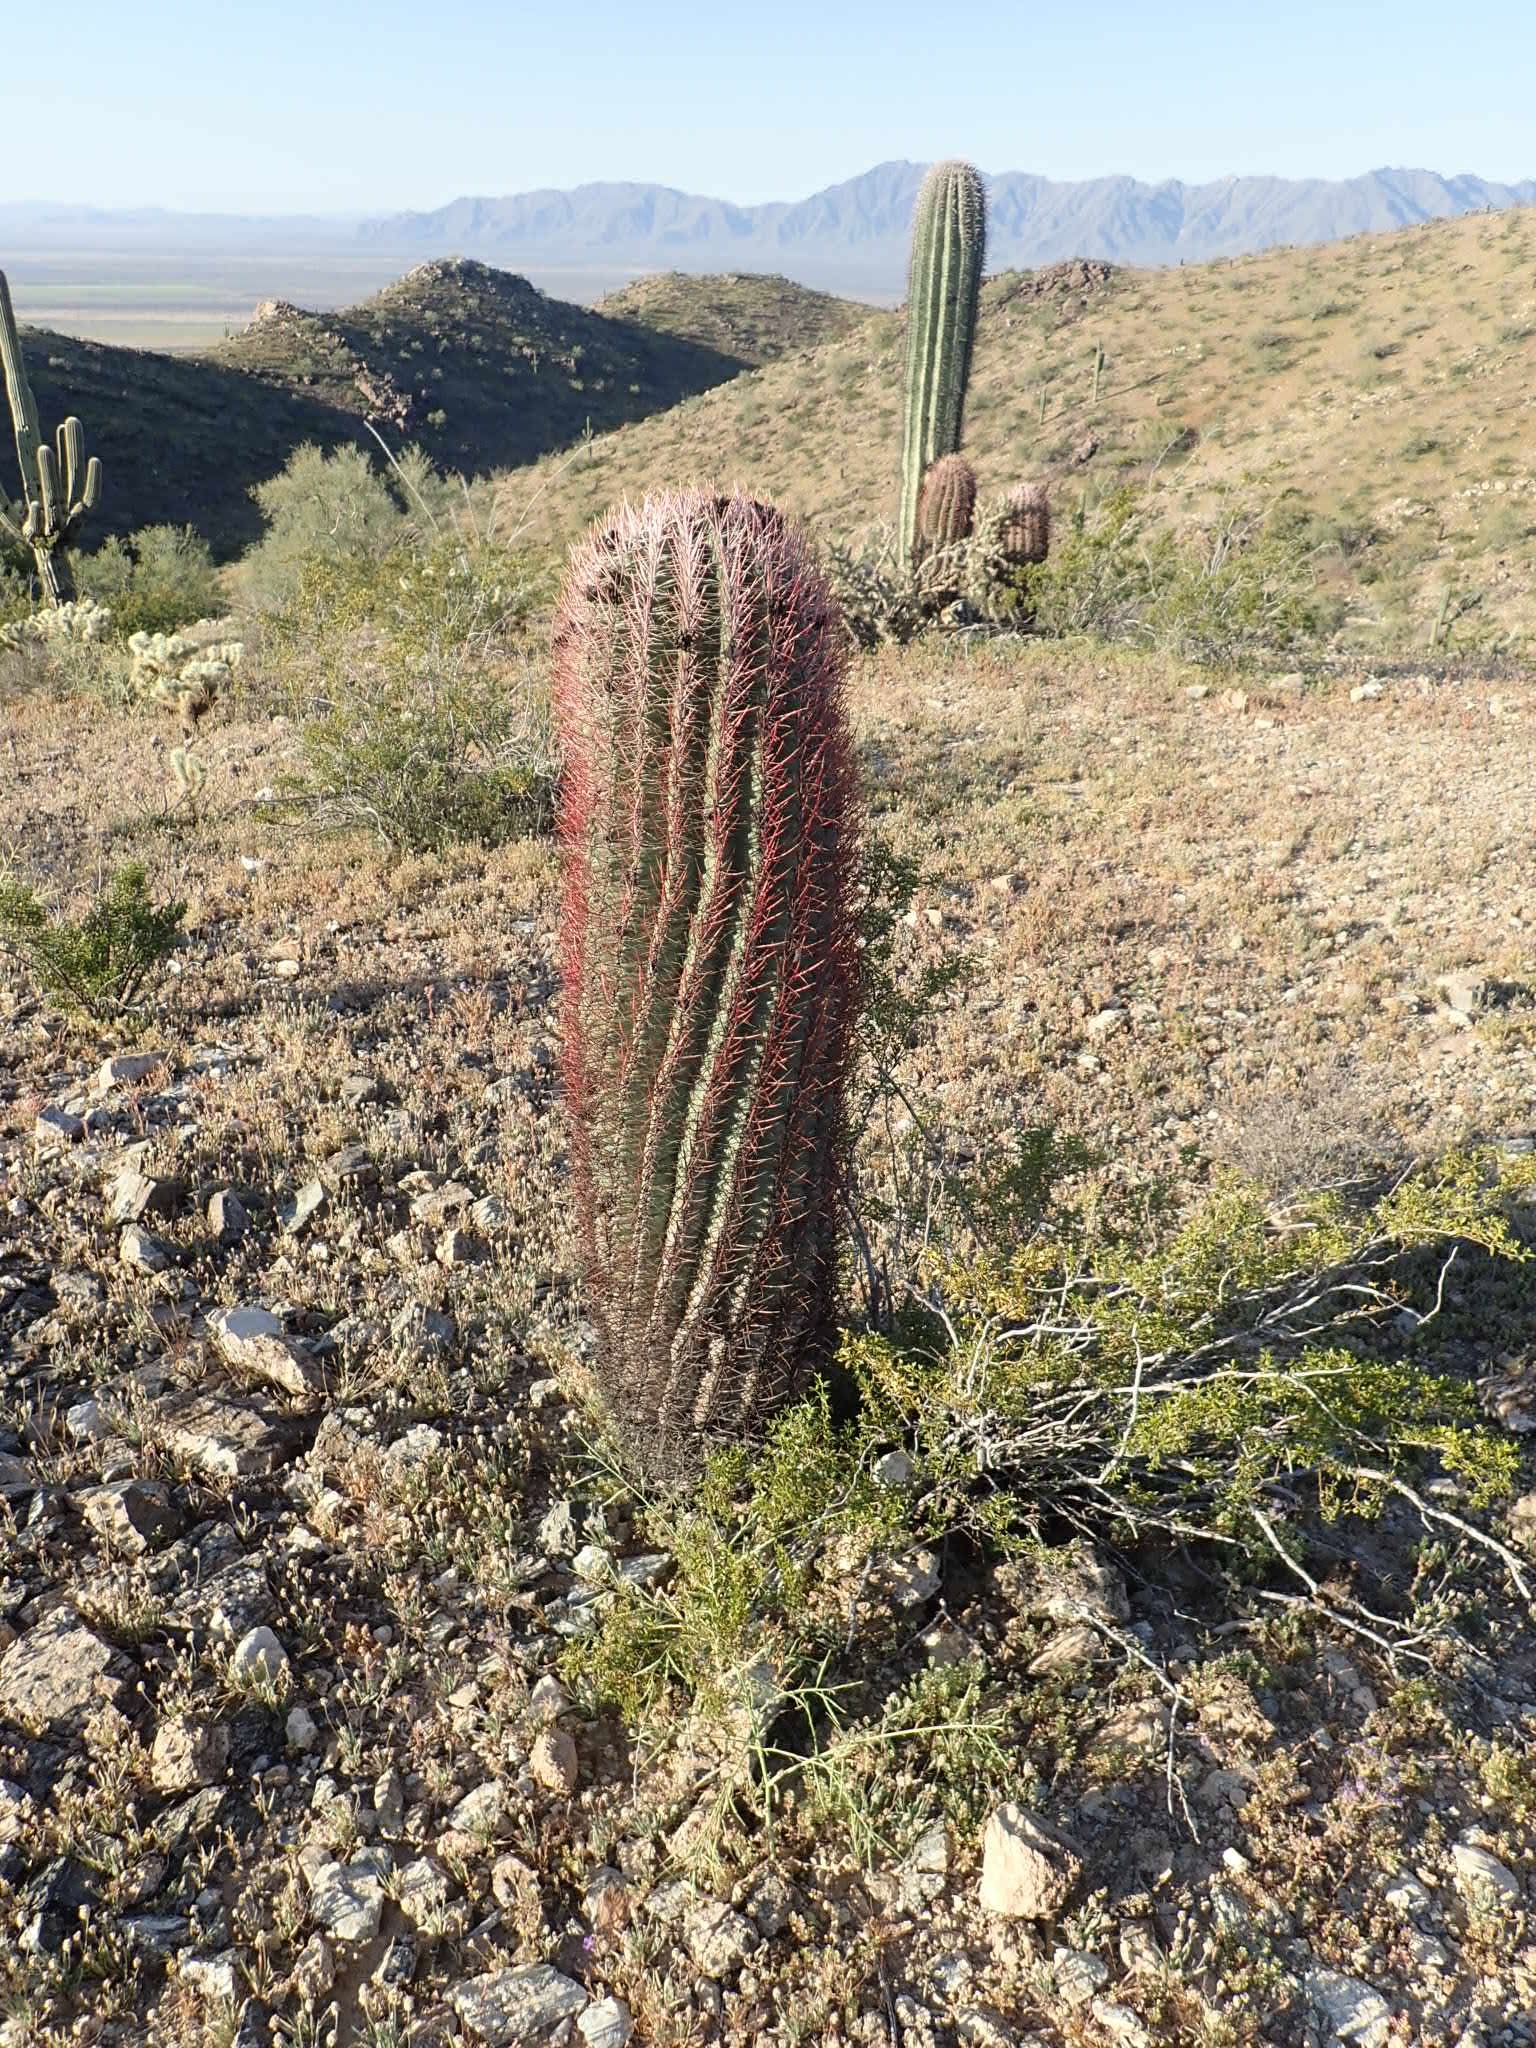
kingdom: Plantae
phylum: Tracheophyta
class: Magnoliopsida
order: Caryophyllales
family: Cactaceae
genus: Ferocactus
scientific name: Ferocactus cylindraceus
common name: California barrel cactus
